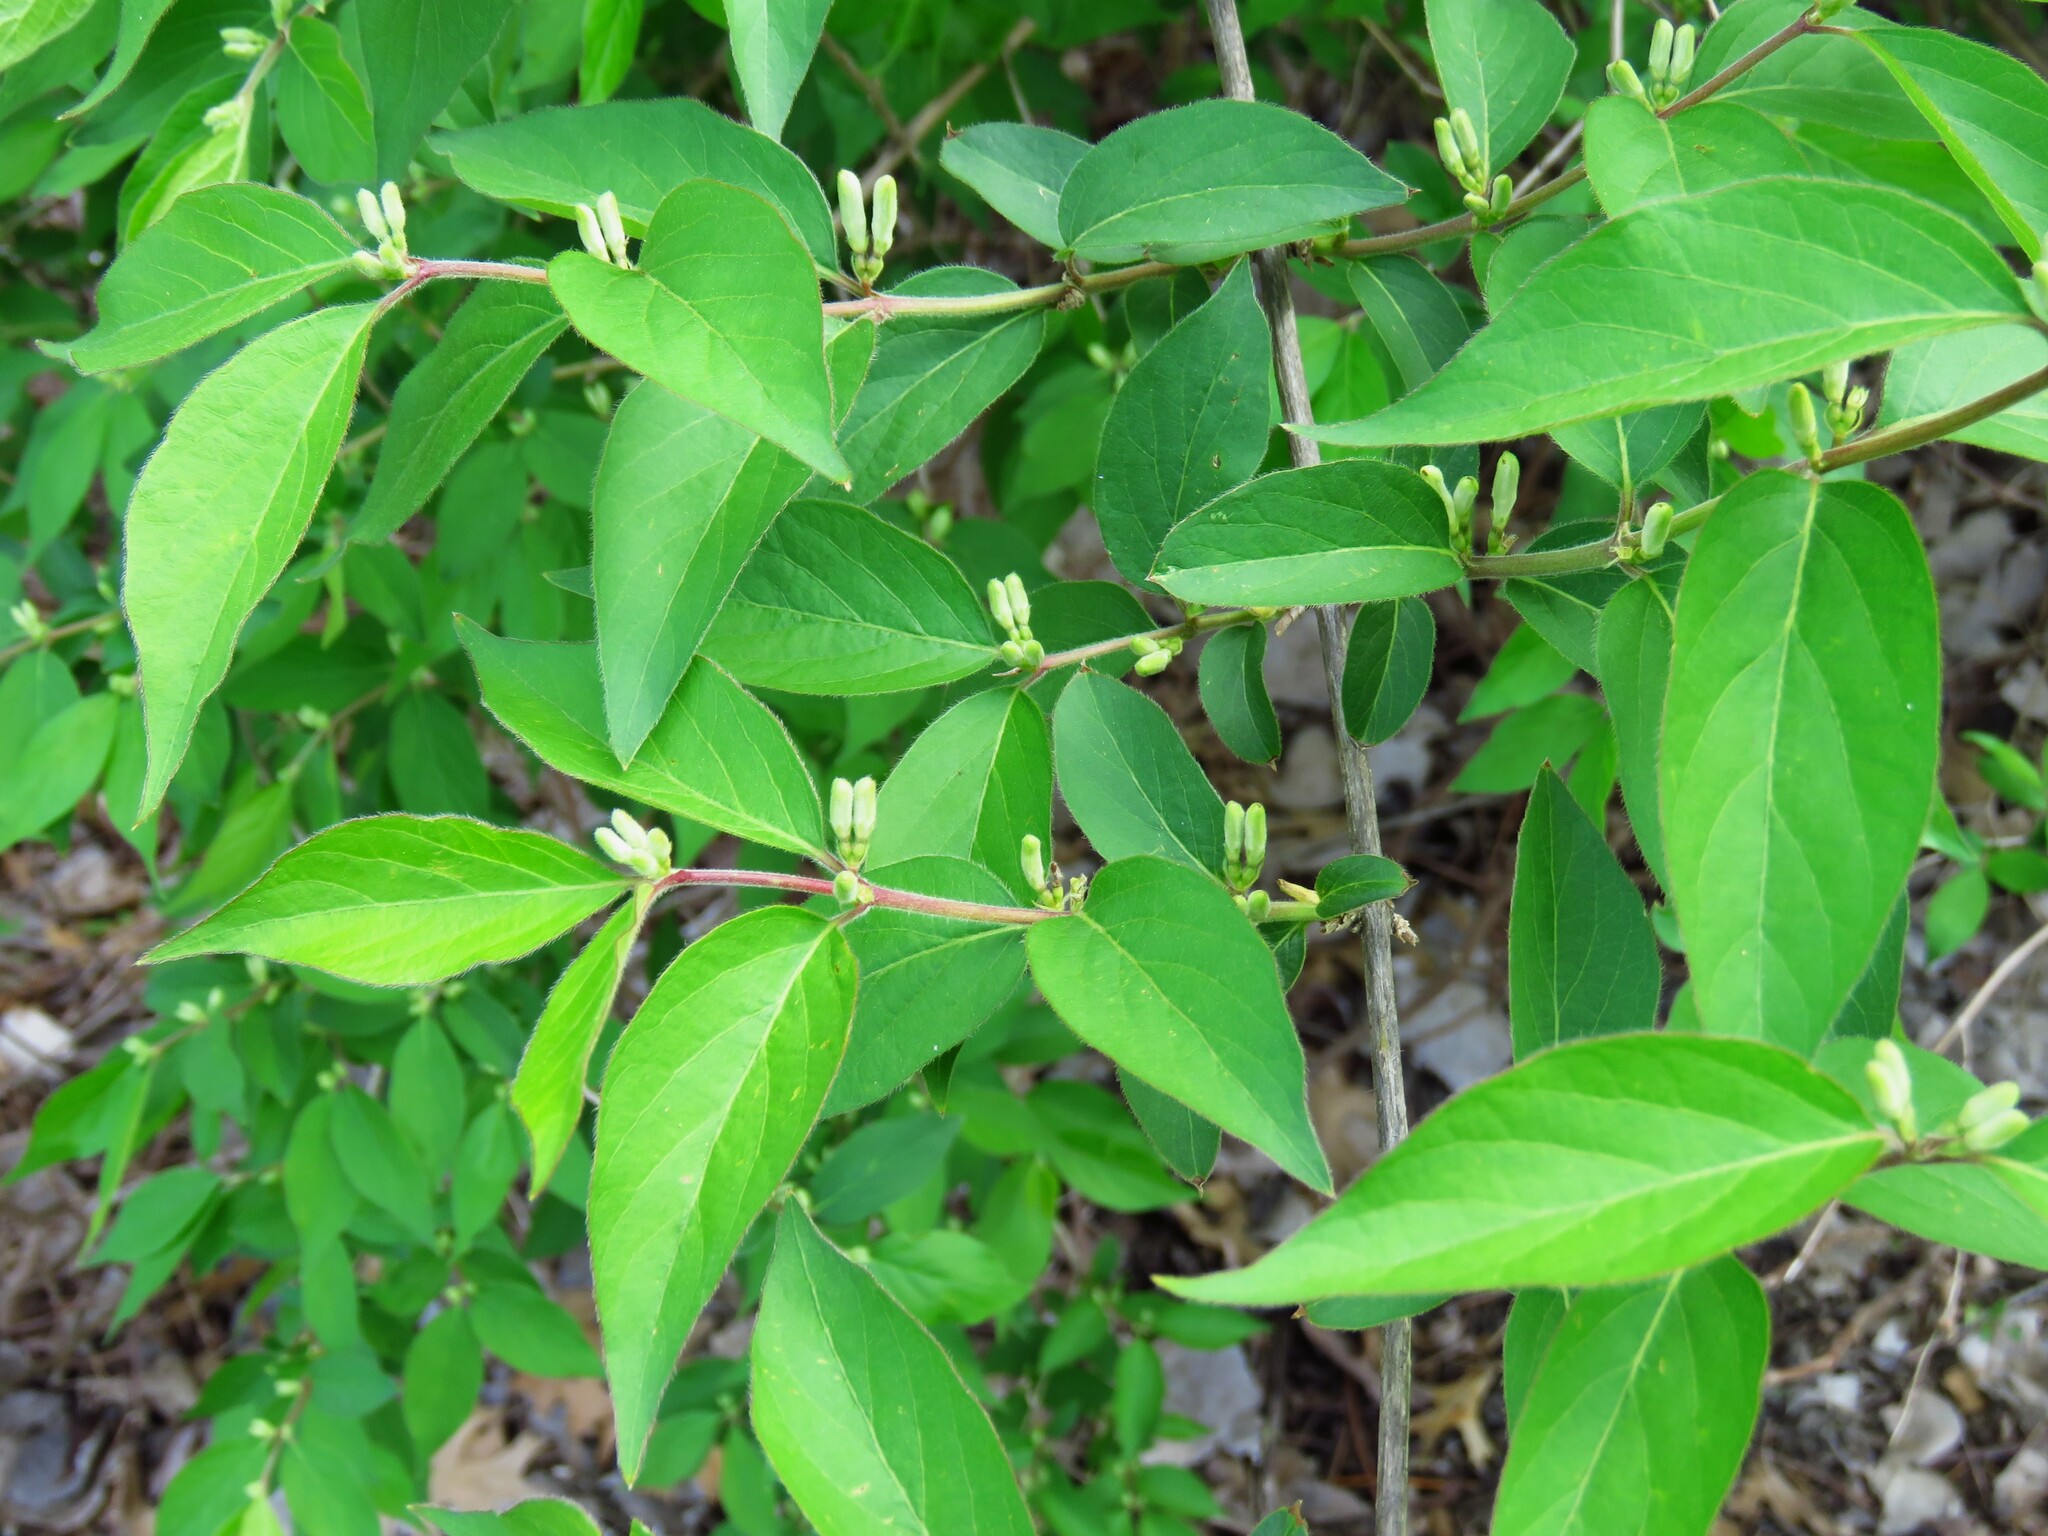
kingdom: Plantae
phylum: Tracheophyta
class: Magnoliopsida
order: Dipsacales
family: Caprifoliaceae
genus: Lonicera
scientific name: Lonicera maackii
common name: Amur honeysuckle
